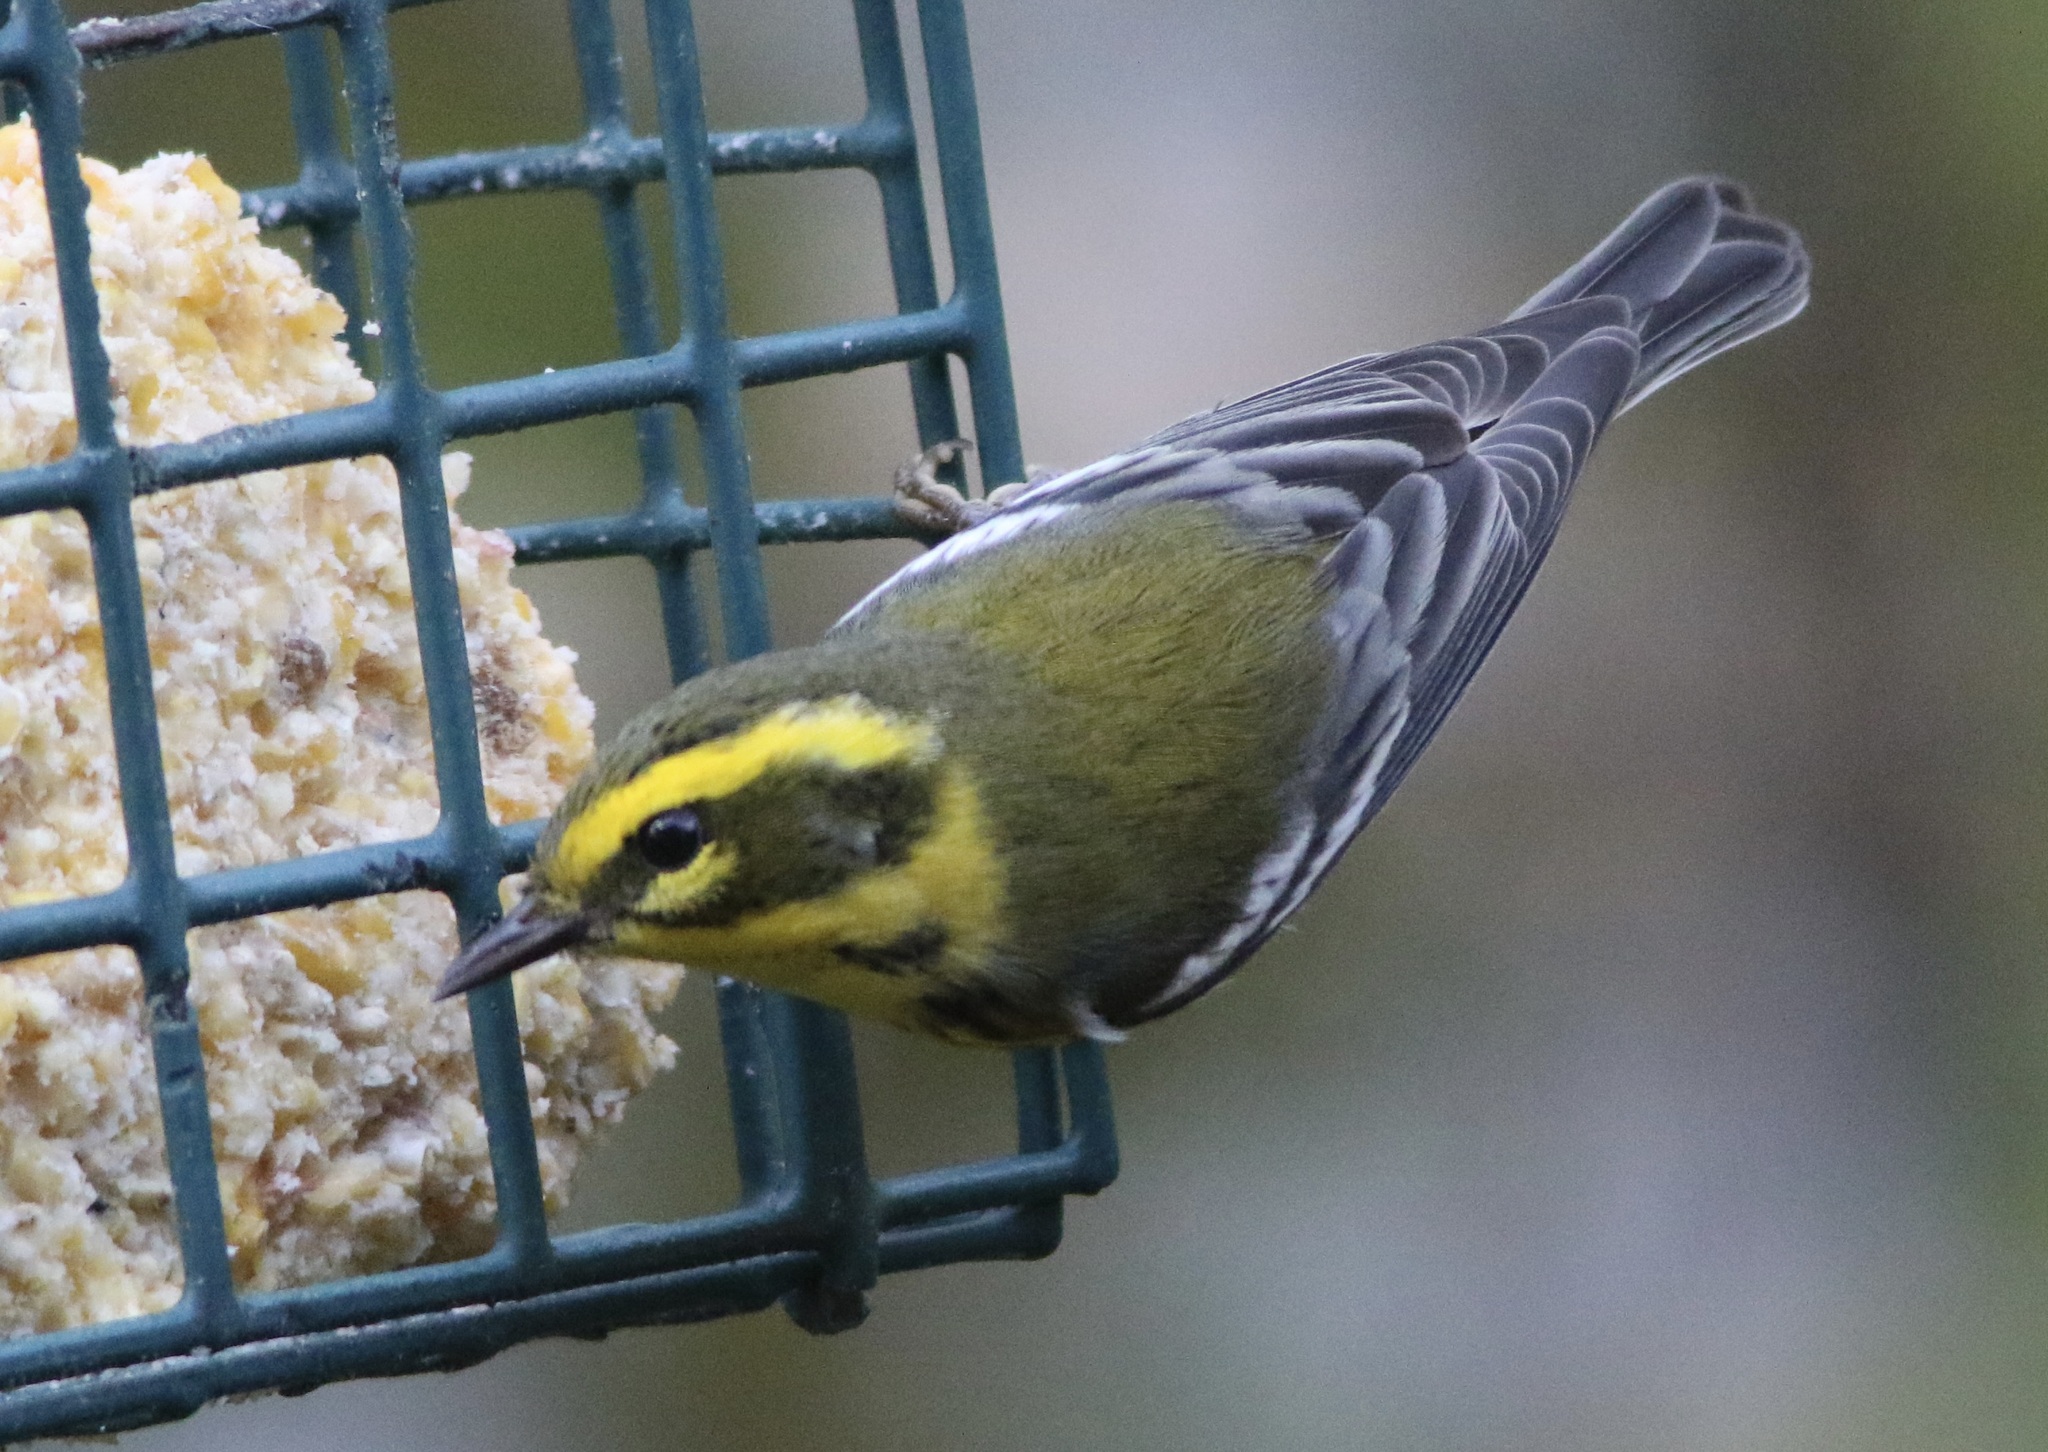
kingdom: Animalia
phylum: Chordata
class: Aves
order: Passeriformes
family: Parulidae
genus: Setophaga
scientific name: Setophaga townsendi
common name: Townsend's warbler
